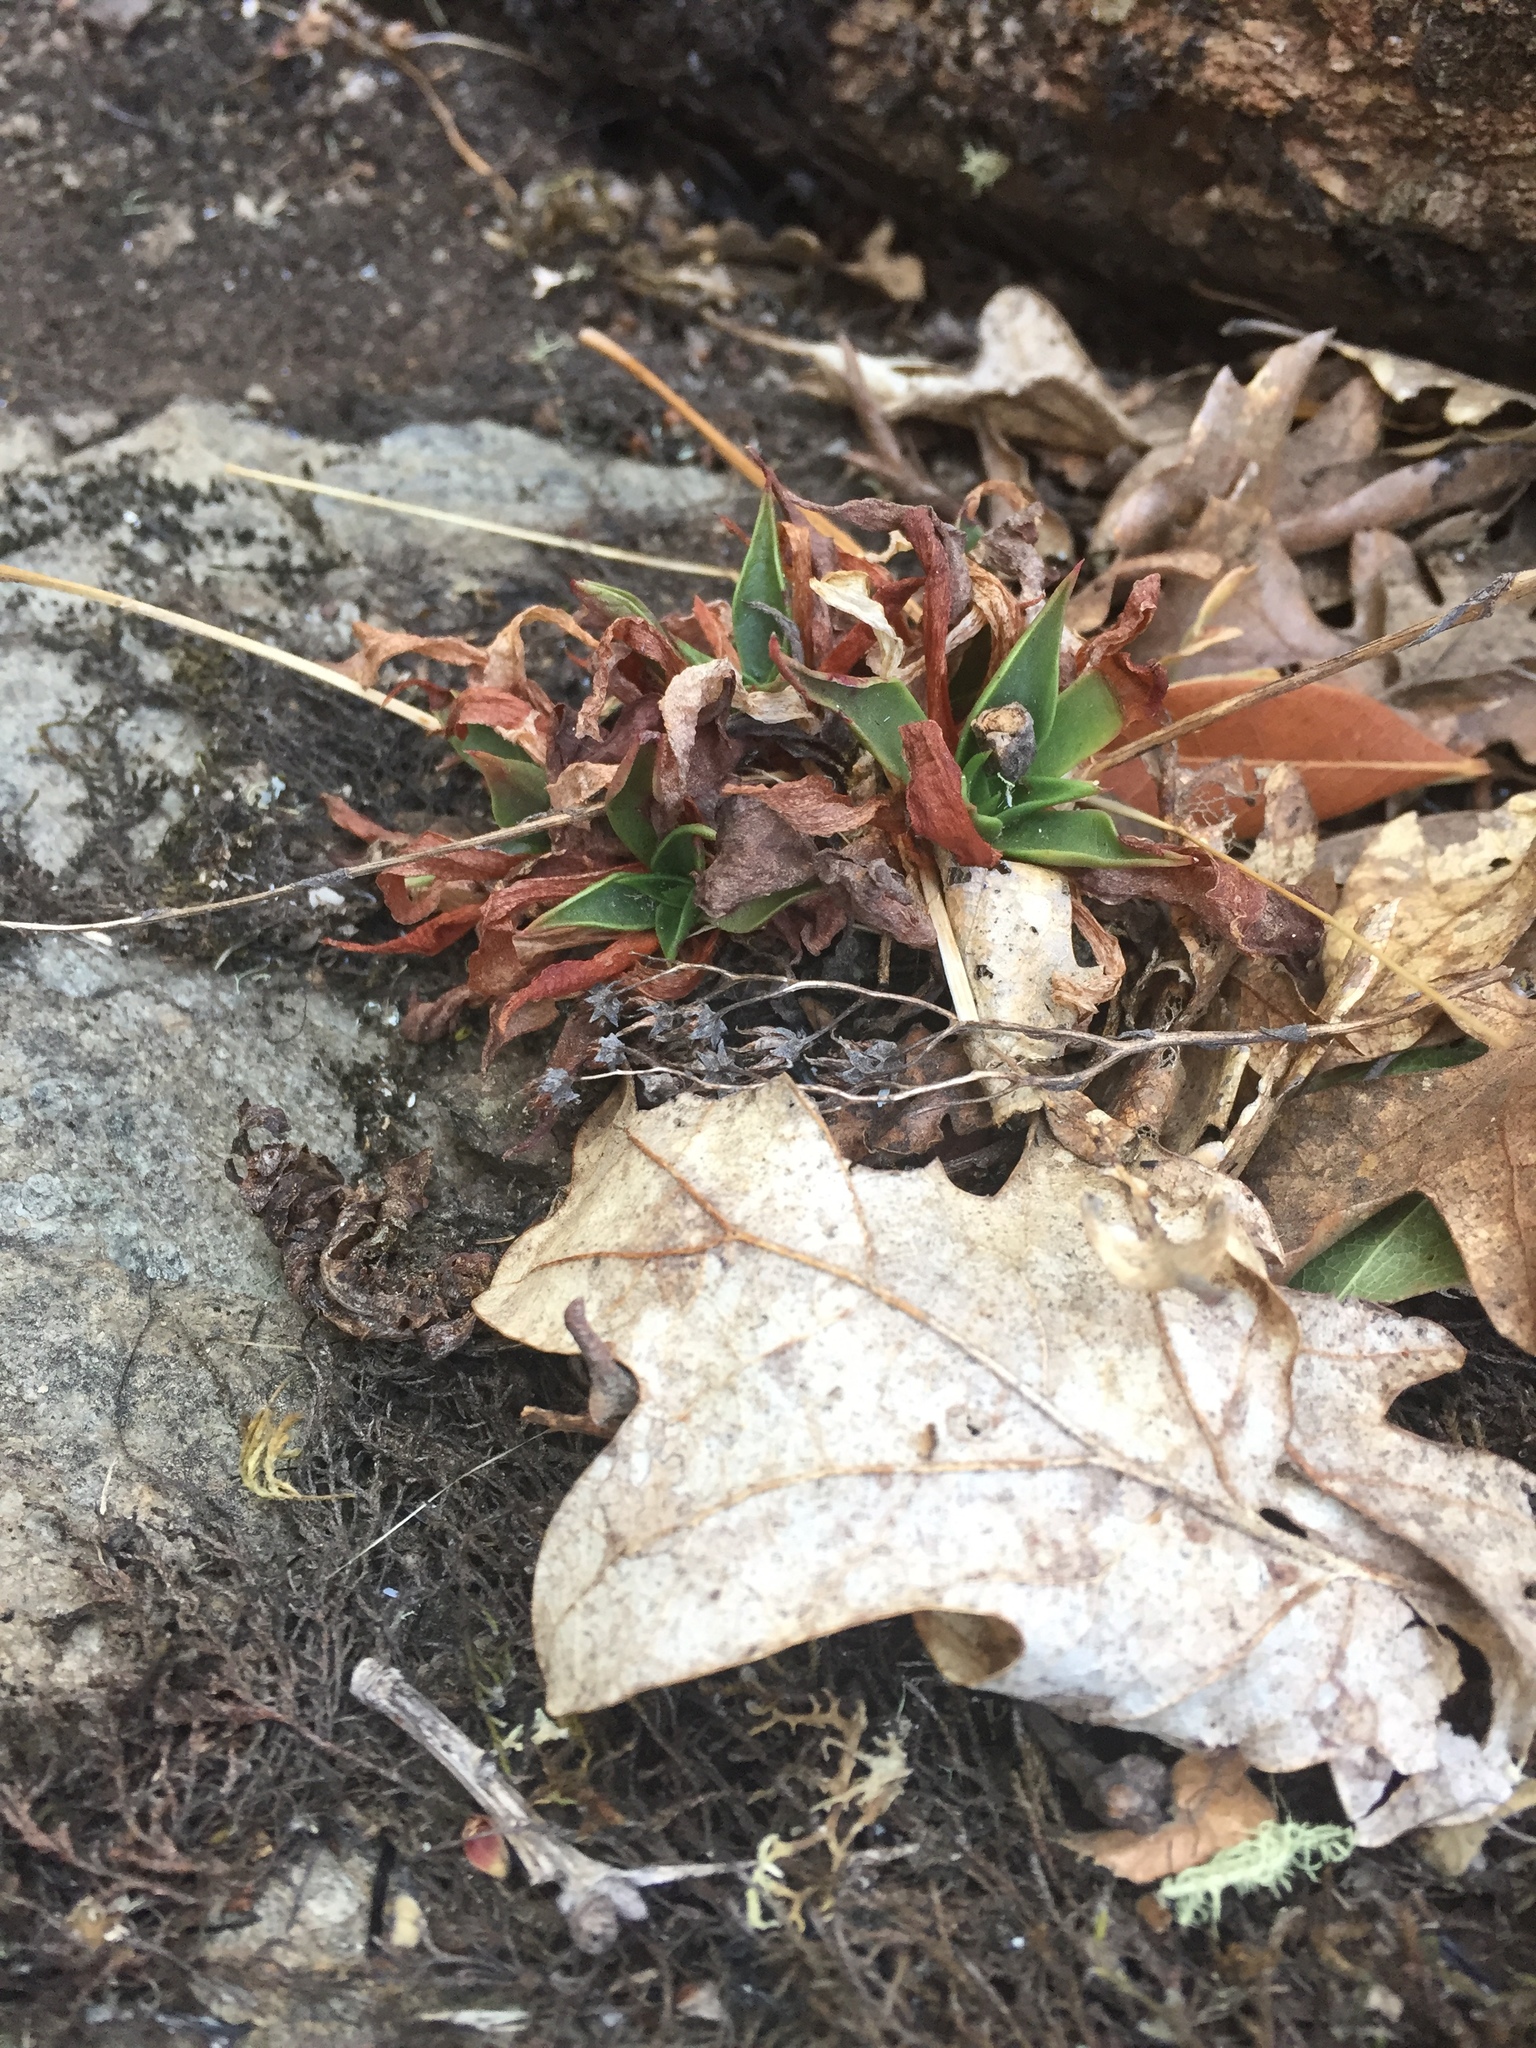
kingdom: Plantae
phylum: Tracheophyta
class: Magnoliopsida
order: Saxifragales
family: Crassulaceae
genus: Dudleya
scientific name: Dudleya cymosa
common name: Canyon dudleya
